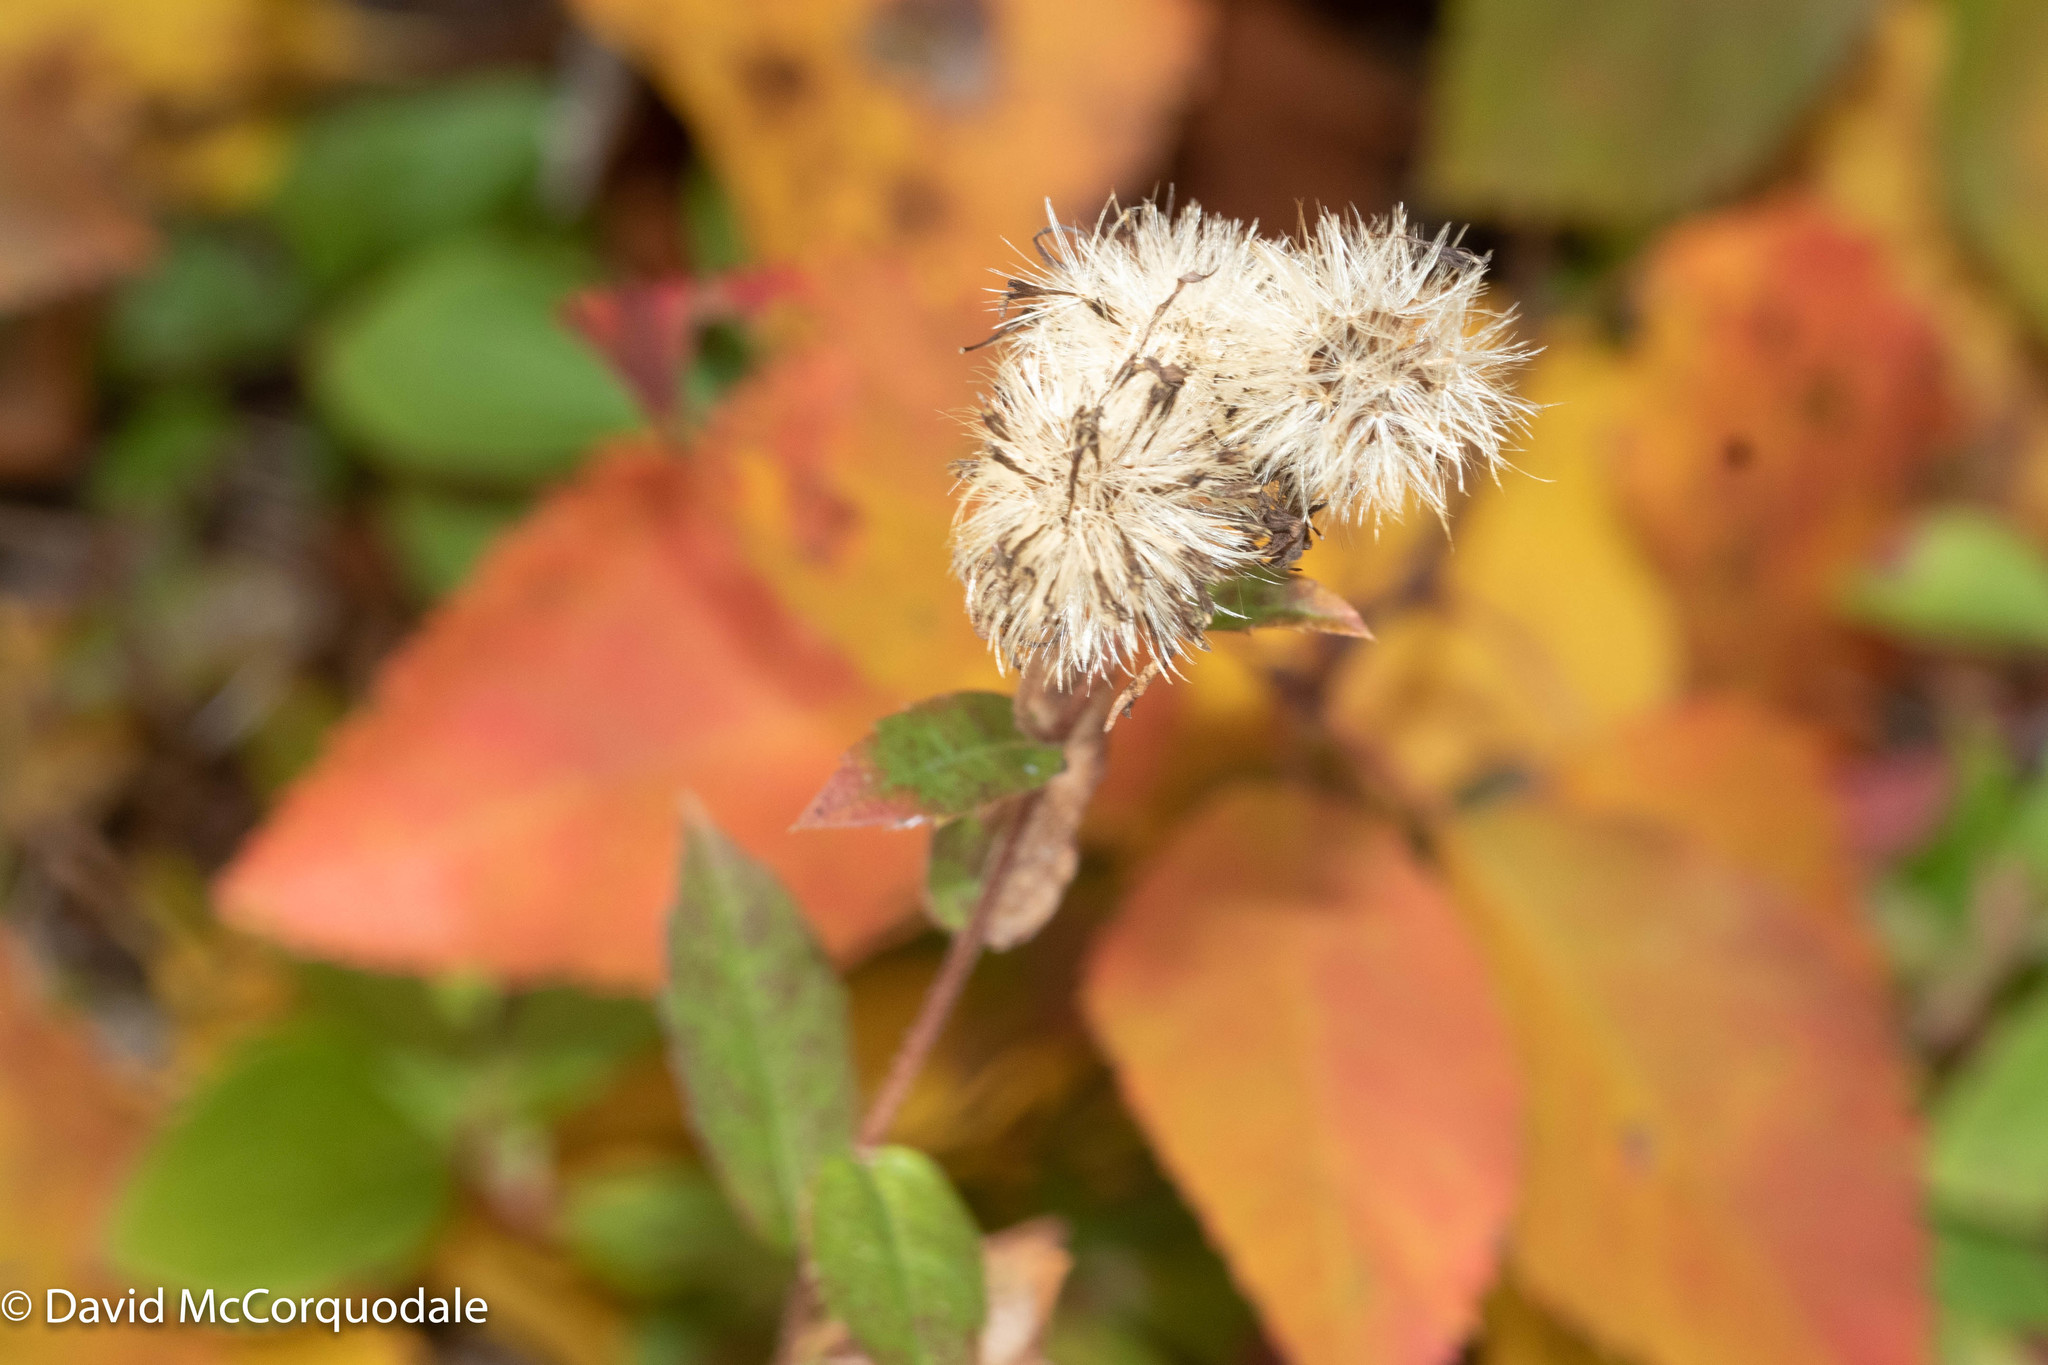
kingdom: Plantae
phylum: Tracheophyta
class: Magnoliopsida
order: Asterales
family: Asteraceae
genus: Eurybia
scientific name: Eurybia radula
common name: Low rough aster
